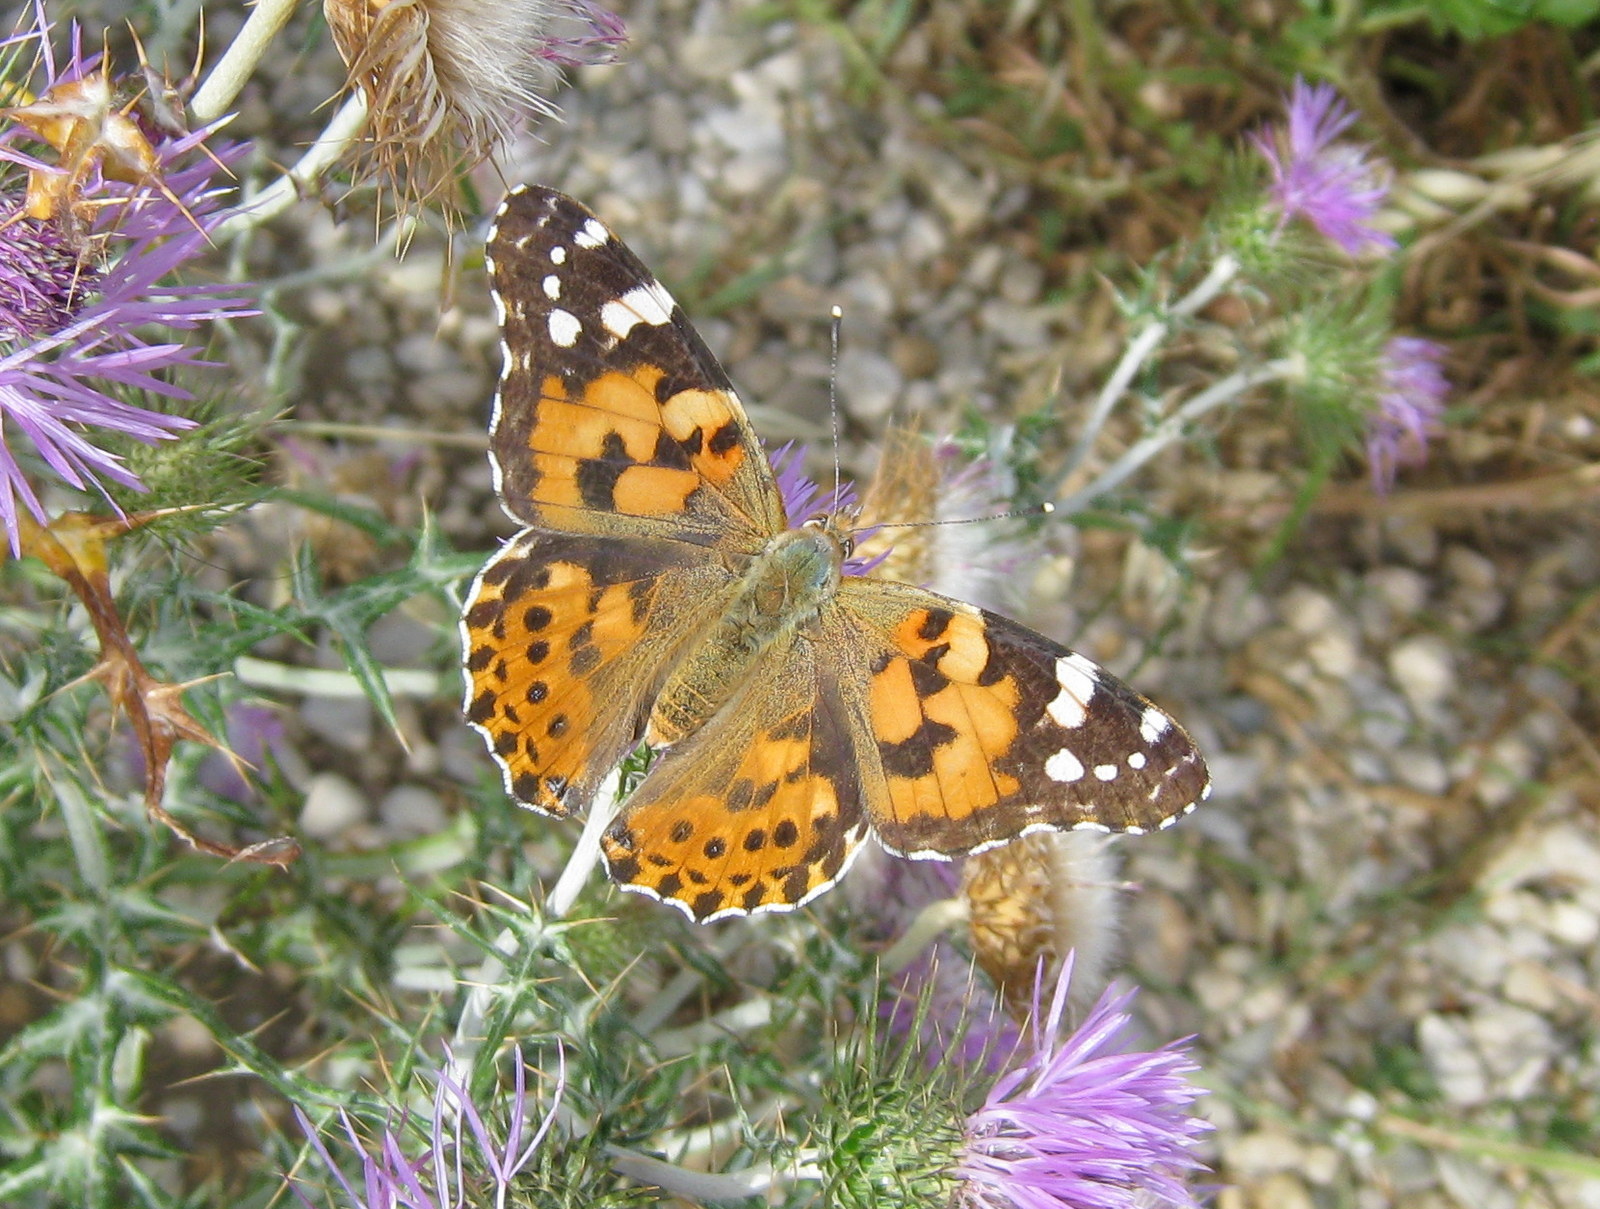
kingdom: Animalia
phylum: Arthropoda
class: Insecta
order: Lepidoptera
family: Nymphalidae
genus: Vanessa
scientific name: Vanessa cardui
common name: Painted lady
